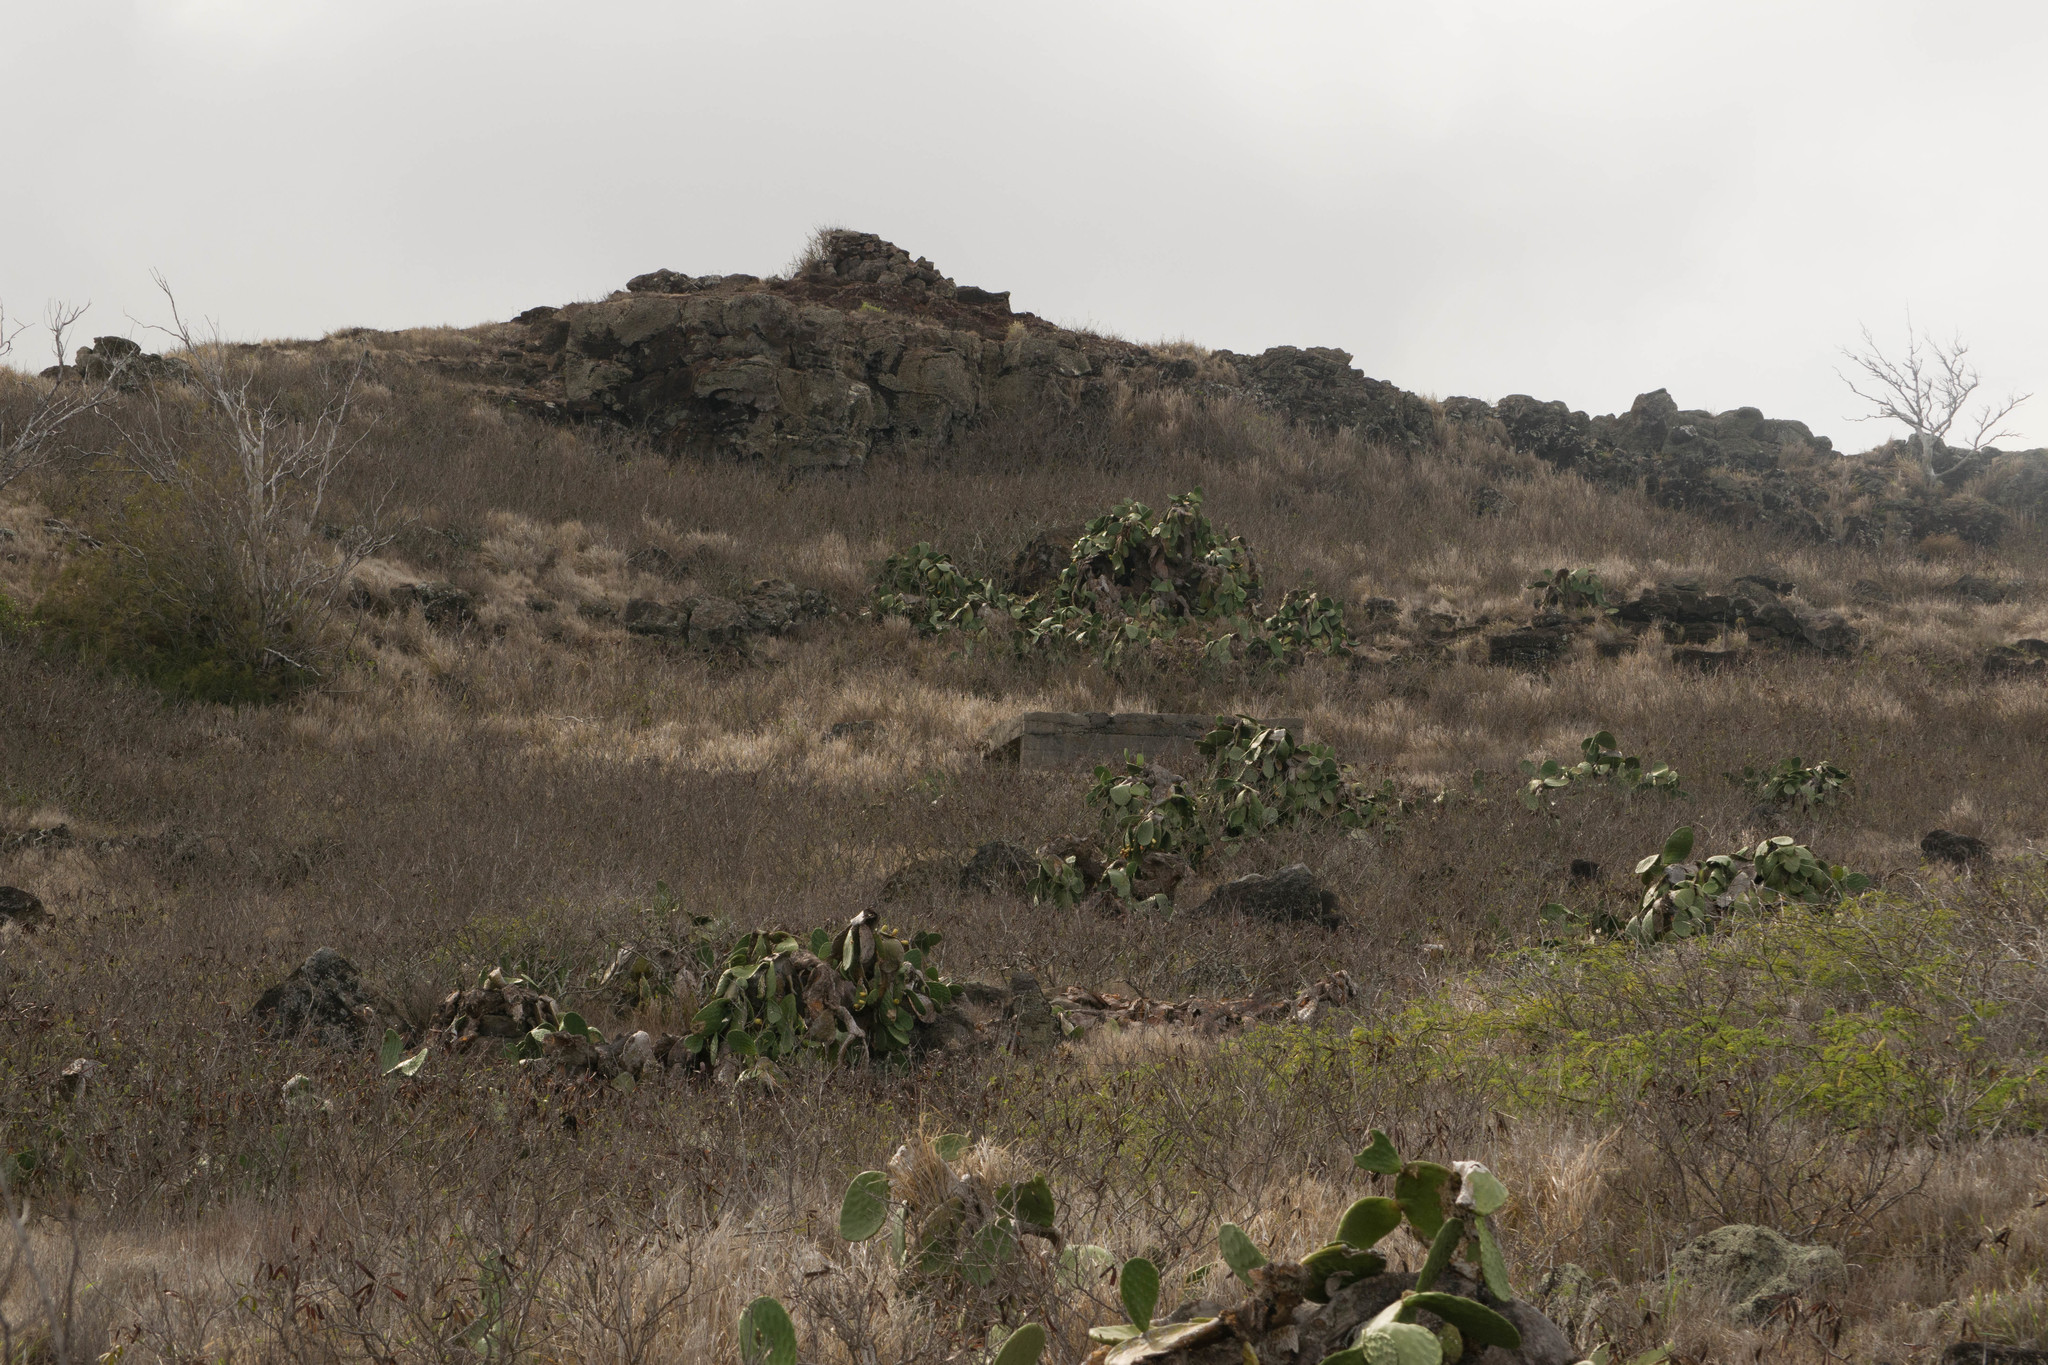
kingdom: Plantae
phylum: Tracheophyta
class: Magnoliopsida
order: Caryophyllales
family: Cactaceae
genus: Opuntia
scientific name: Opuntia ficus-indica
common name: Barbary fig
